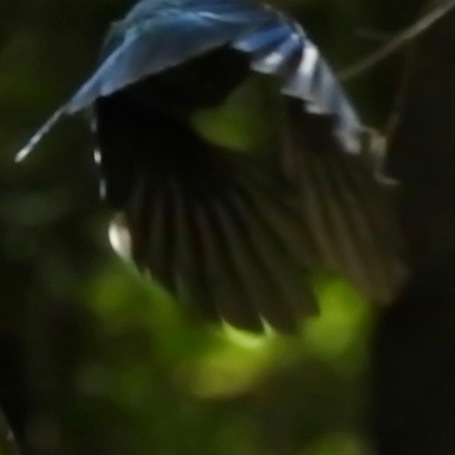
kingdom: Animalia
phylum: Chordata
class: Aves
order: Passeriformes
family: Corvidae
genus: Cyanocitta
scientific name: Cyanocitta stelleri
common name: Steller's jay
